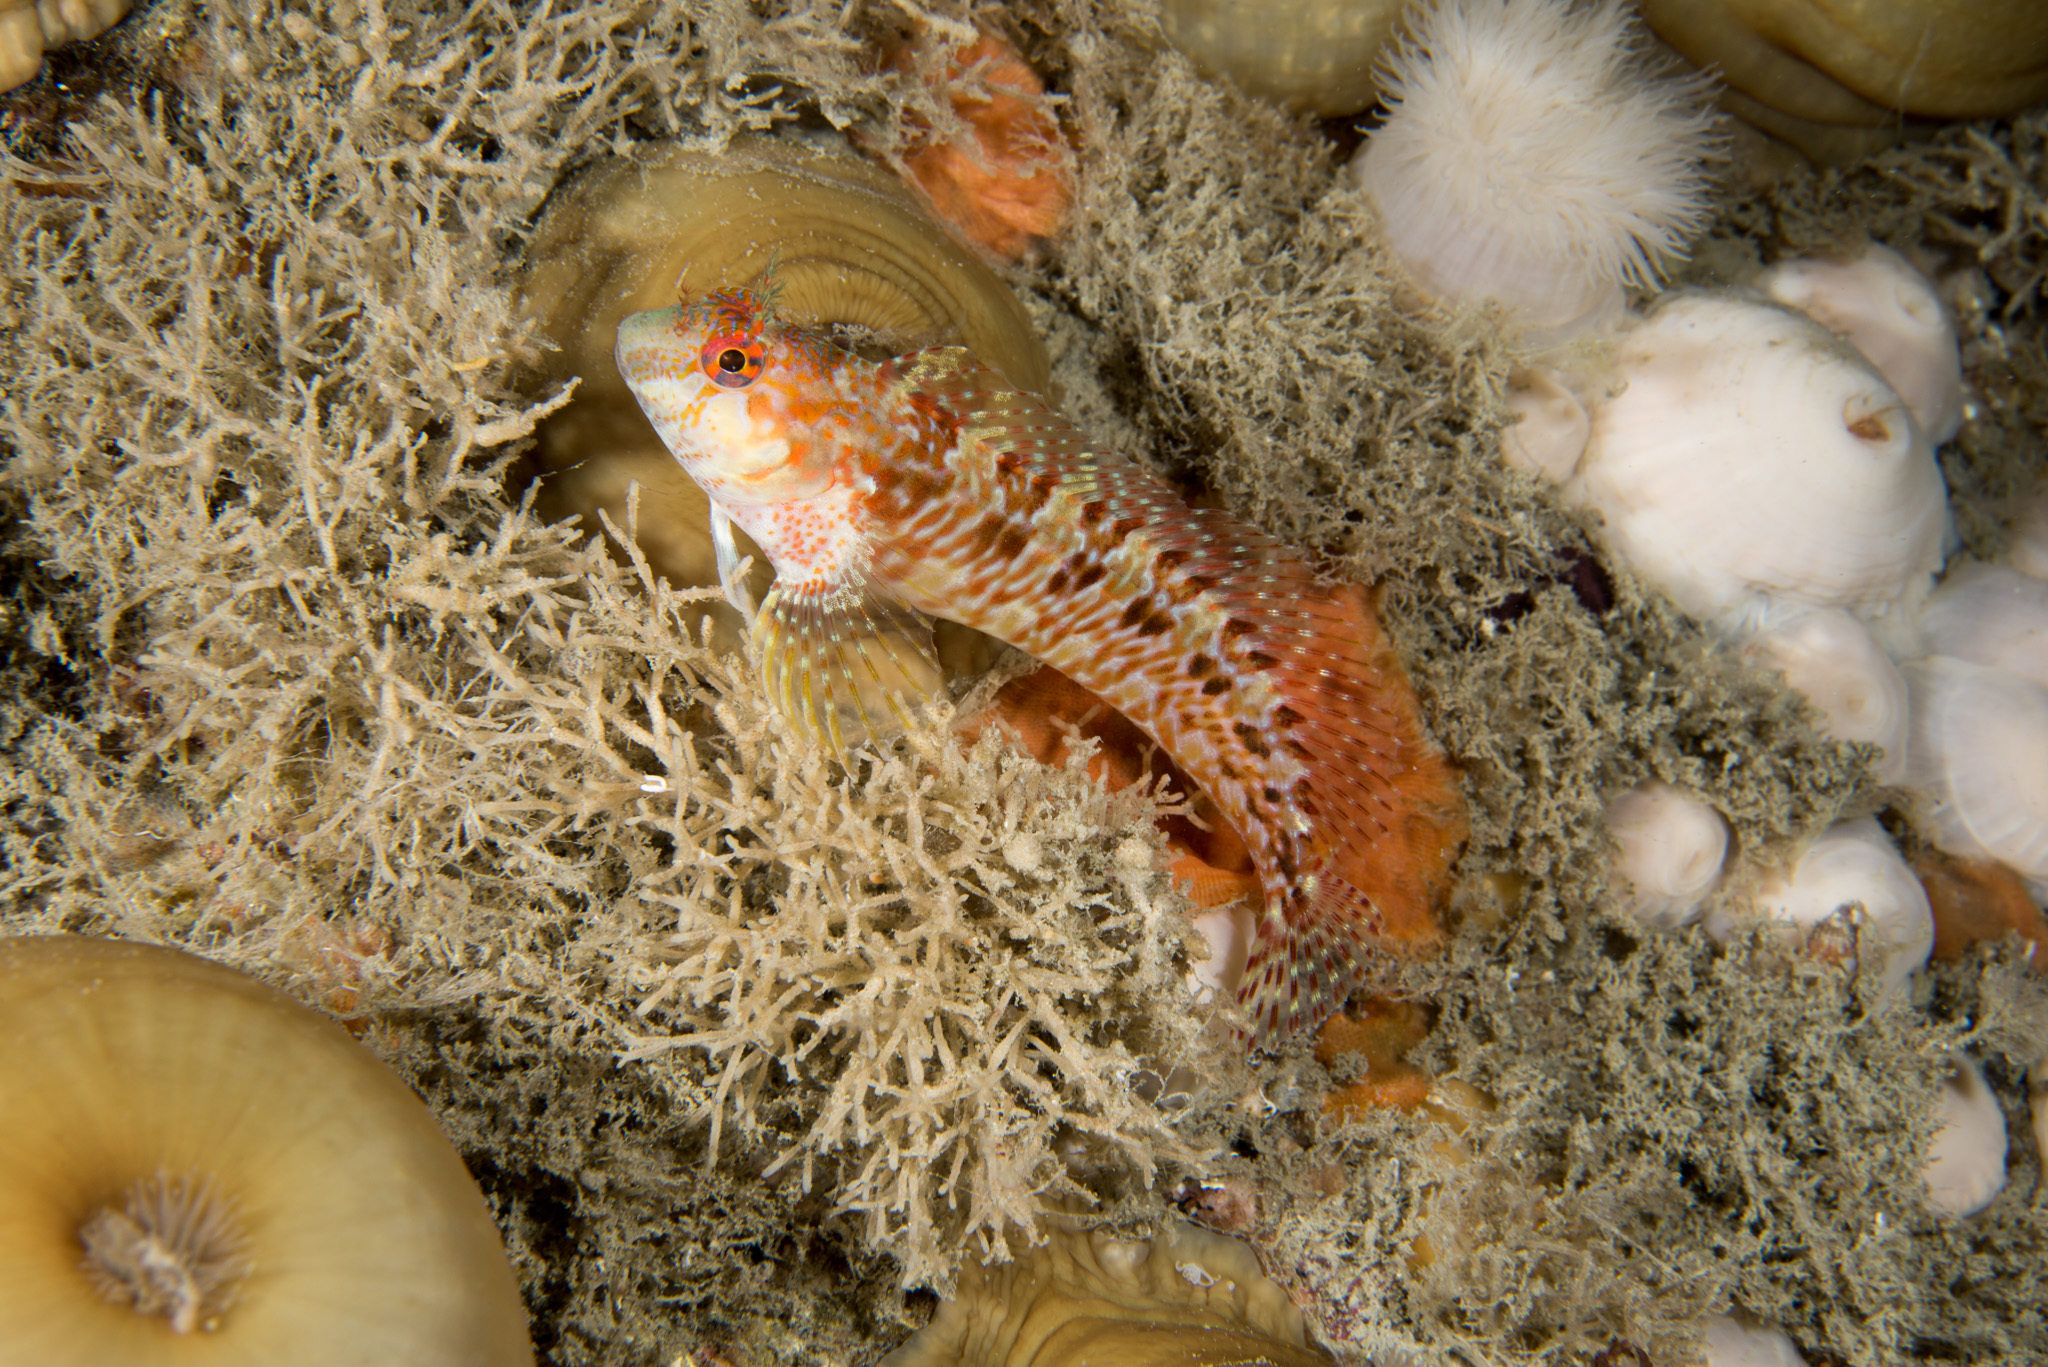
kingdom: Animalia
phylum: Chordata
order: Perciformes
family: Blenniidae
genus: Parablennius
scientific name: Parablennius ruber
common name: Portuguese blenny
